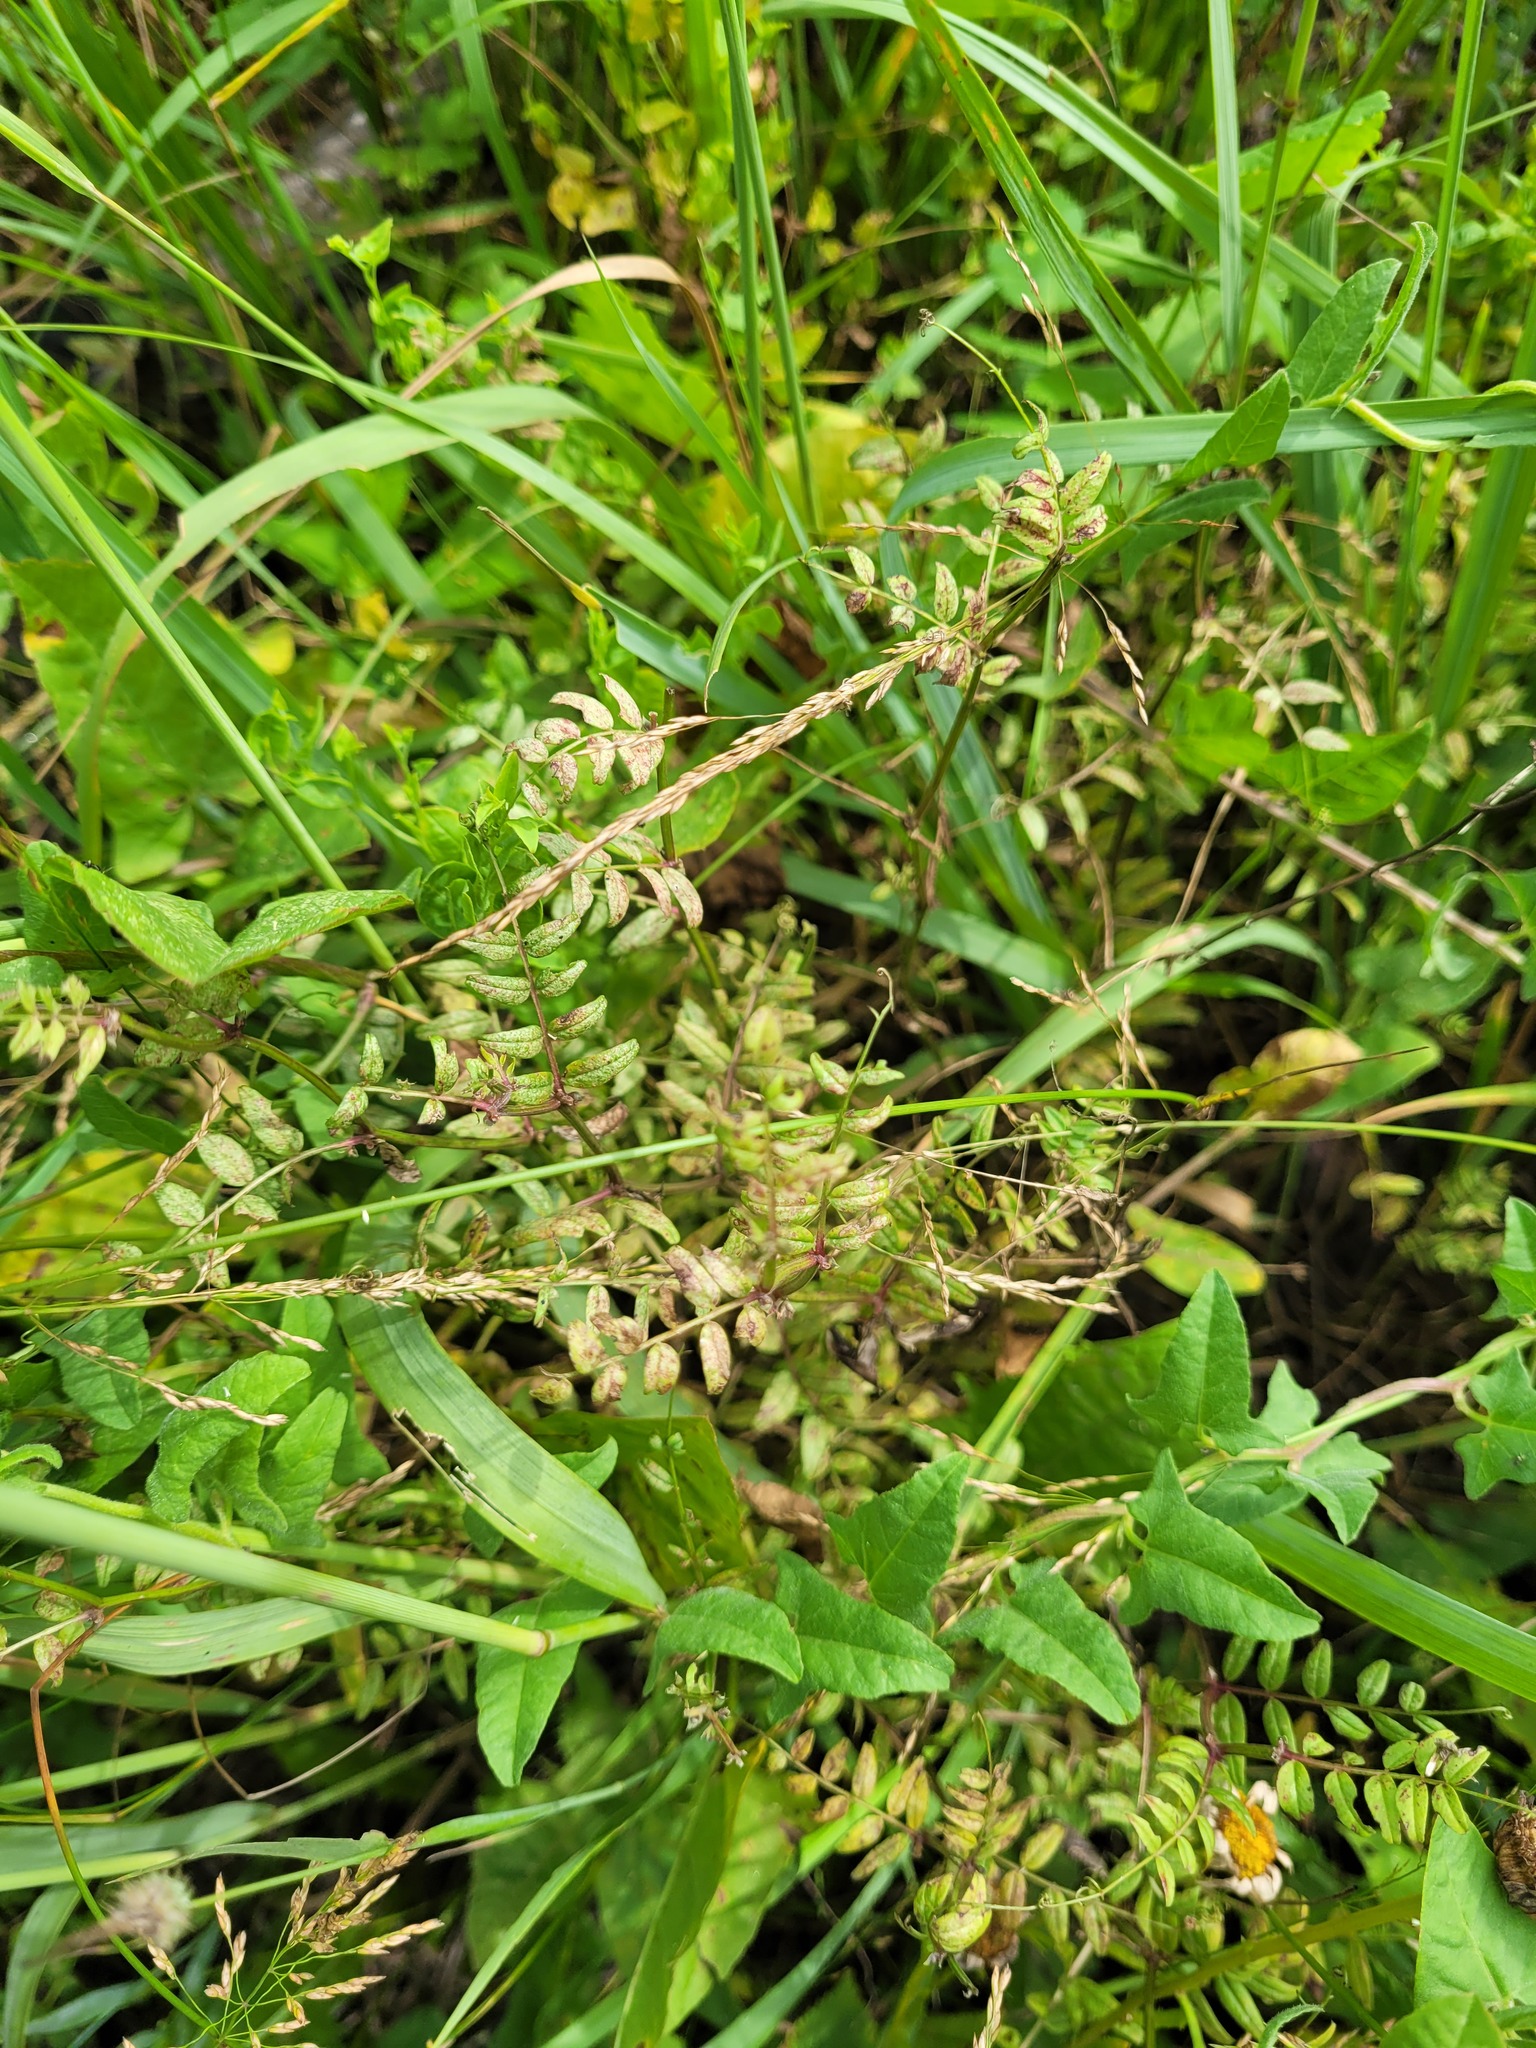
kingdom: Plantae
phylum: Tracheophyta
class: Magnoliopsida
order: Fabales
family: Fabaceae
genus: Vicia
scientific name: Vicia sepium
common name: Bush vetch
